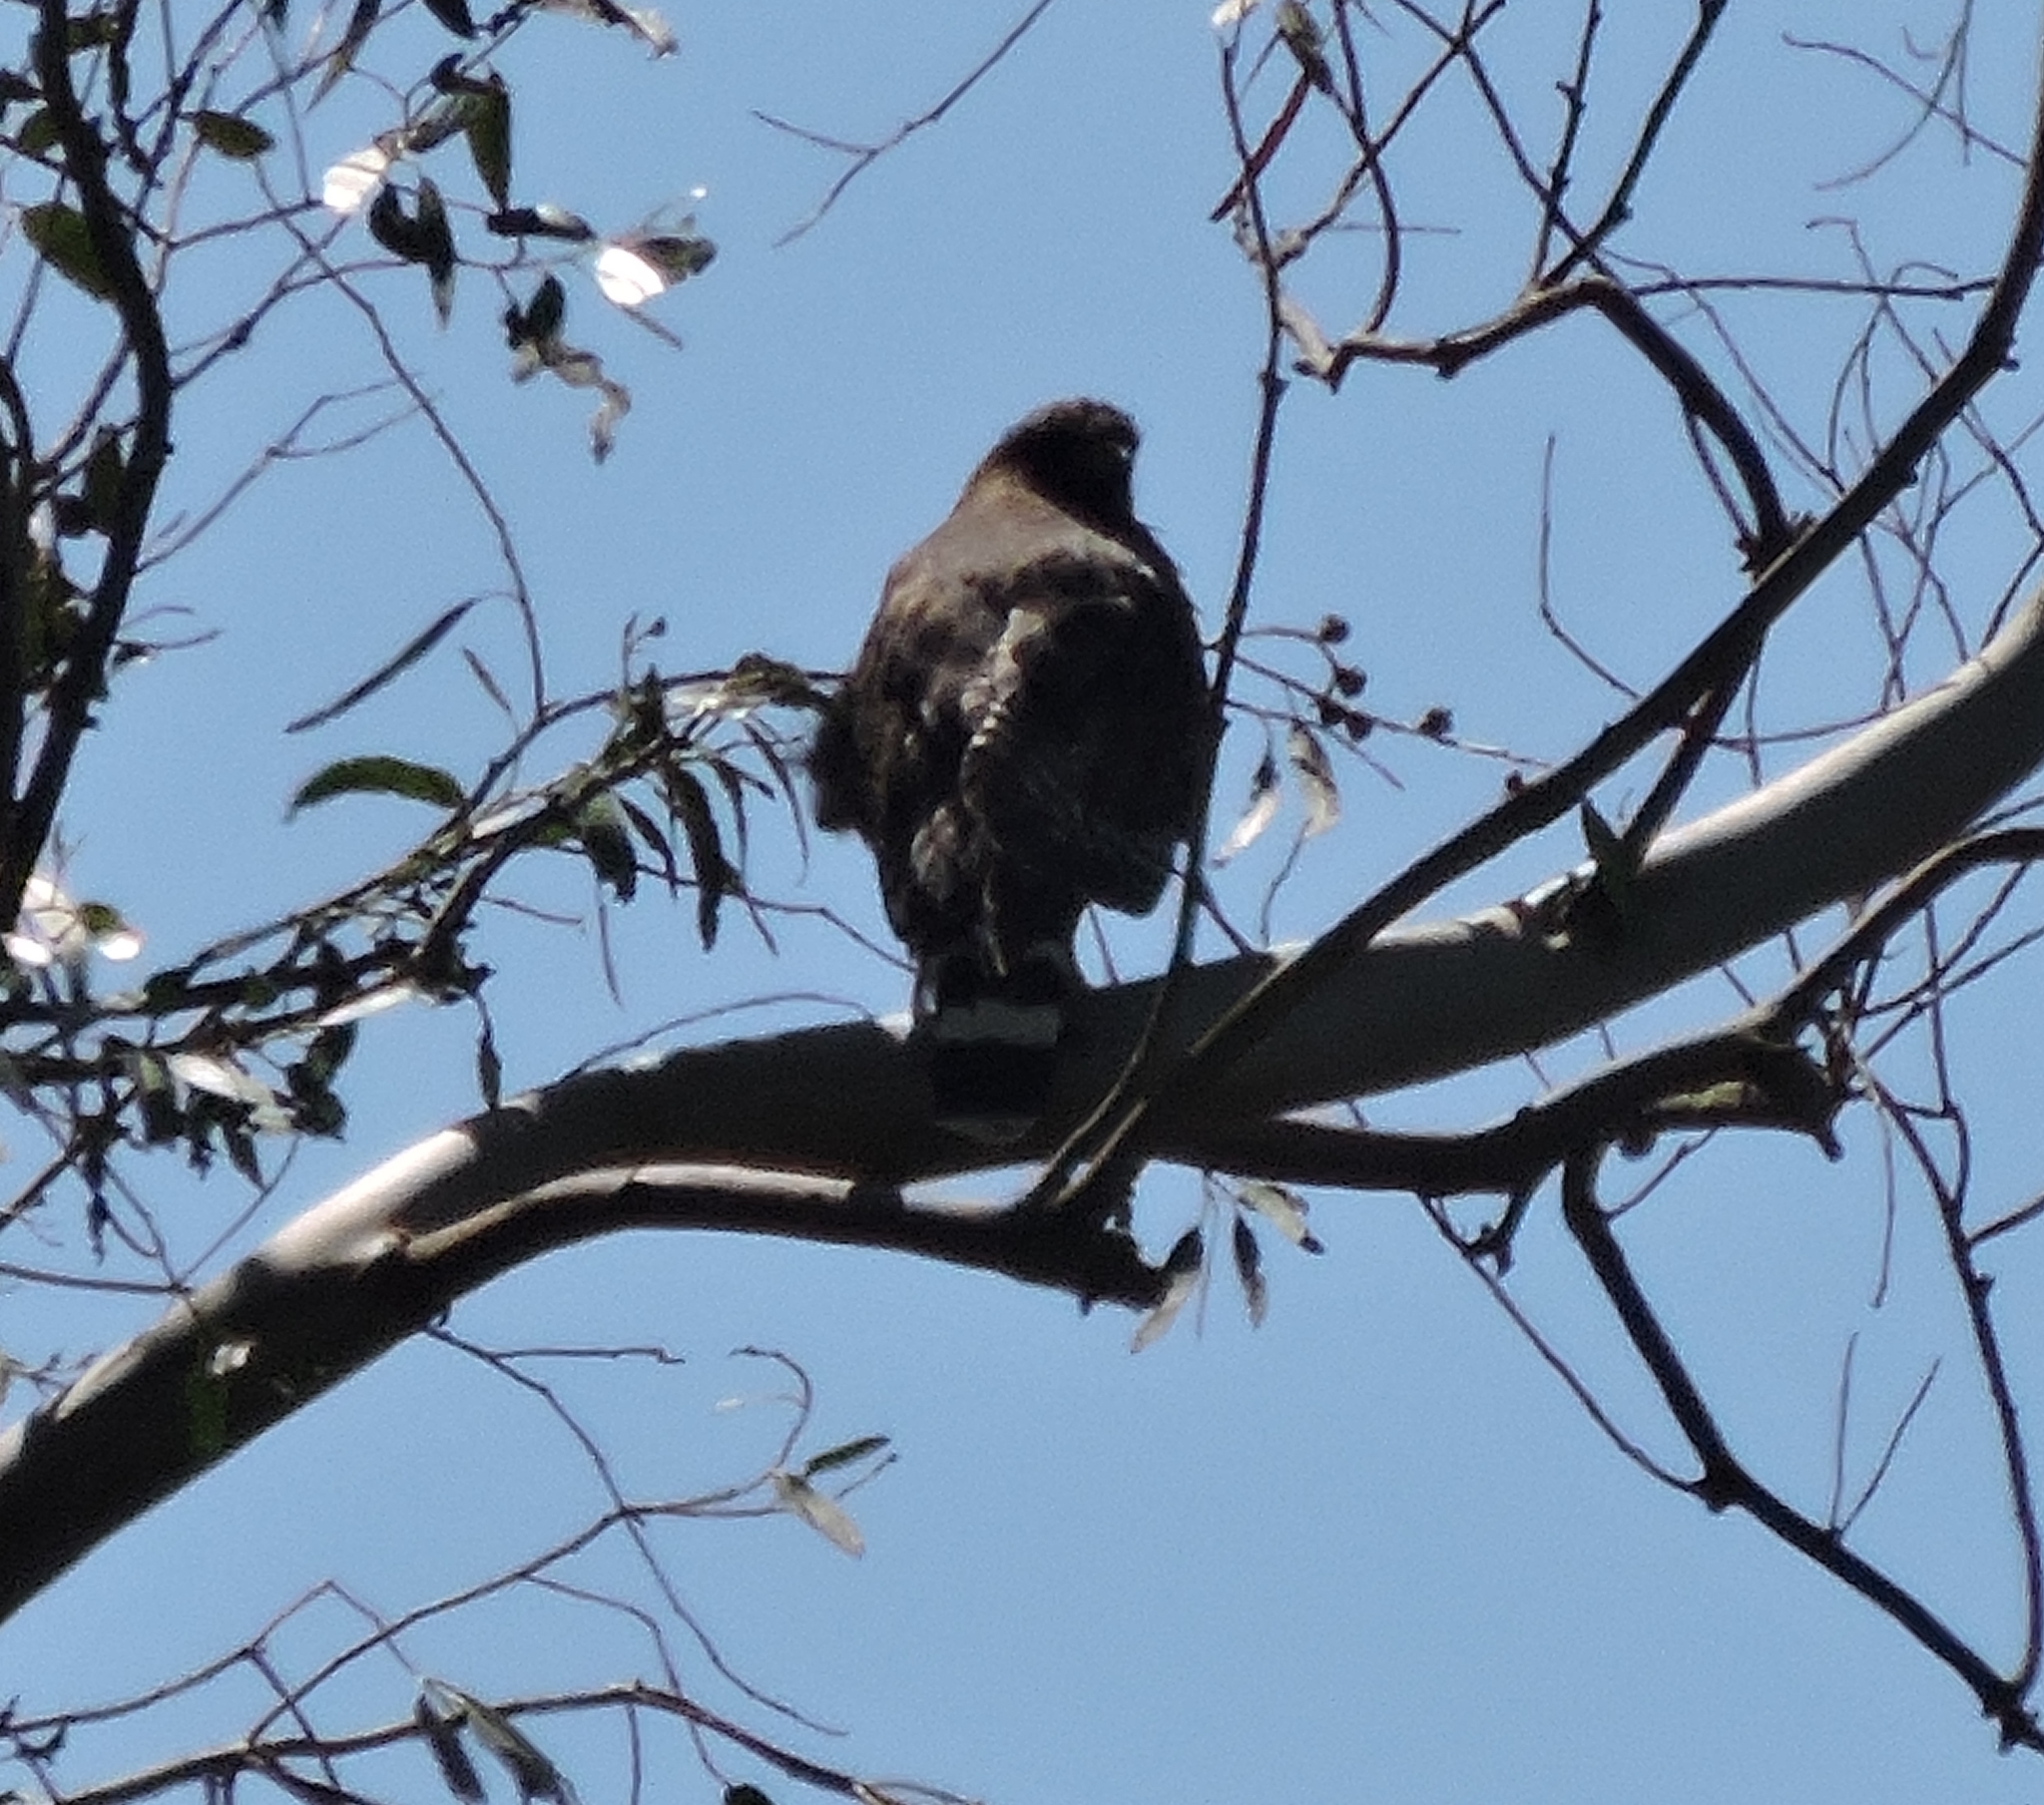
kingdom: Animalia
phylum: Chordata
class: Aves
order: Accipitriformes
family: Accipitridae
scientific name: Accipitridae
